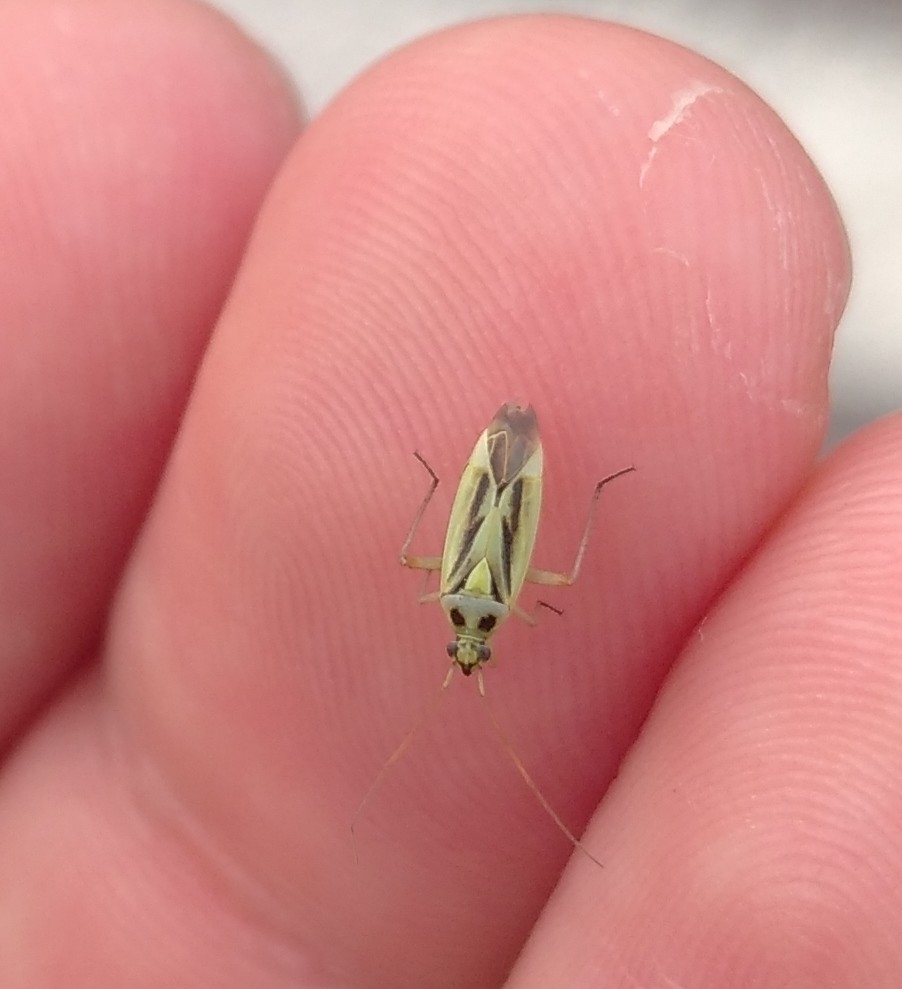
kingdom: Animalia
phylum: Arthropoda
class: Insecta
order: Hemiptera
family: Miridae
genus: Stenotus
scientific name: Stenotus binotatus
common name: Plant bug
